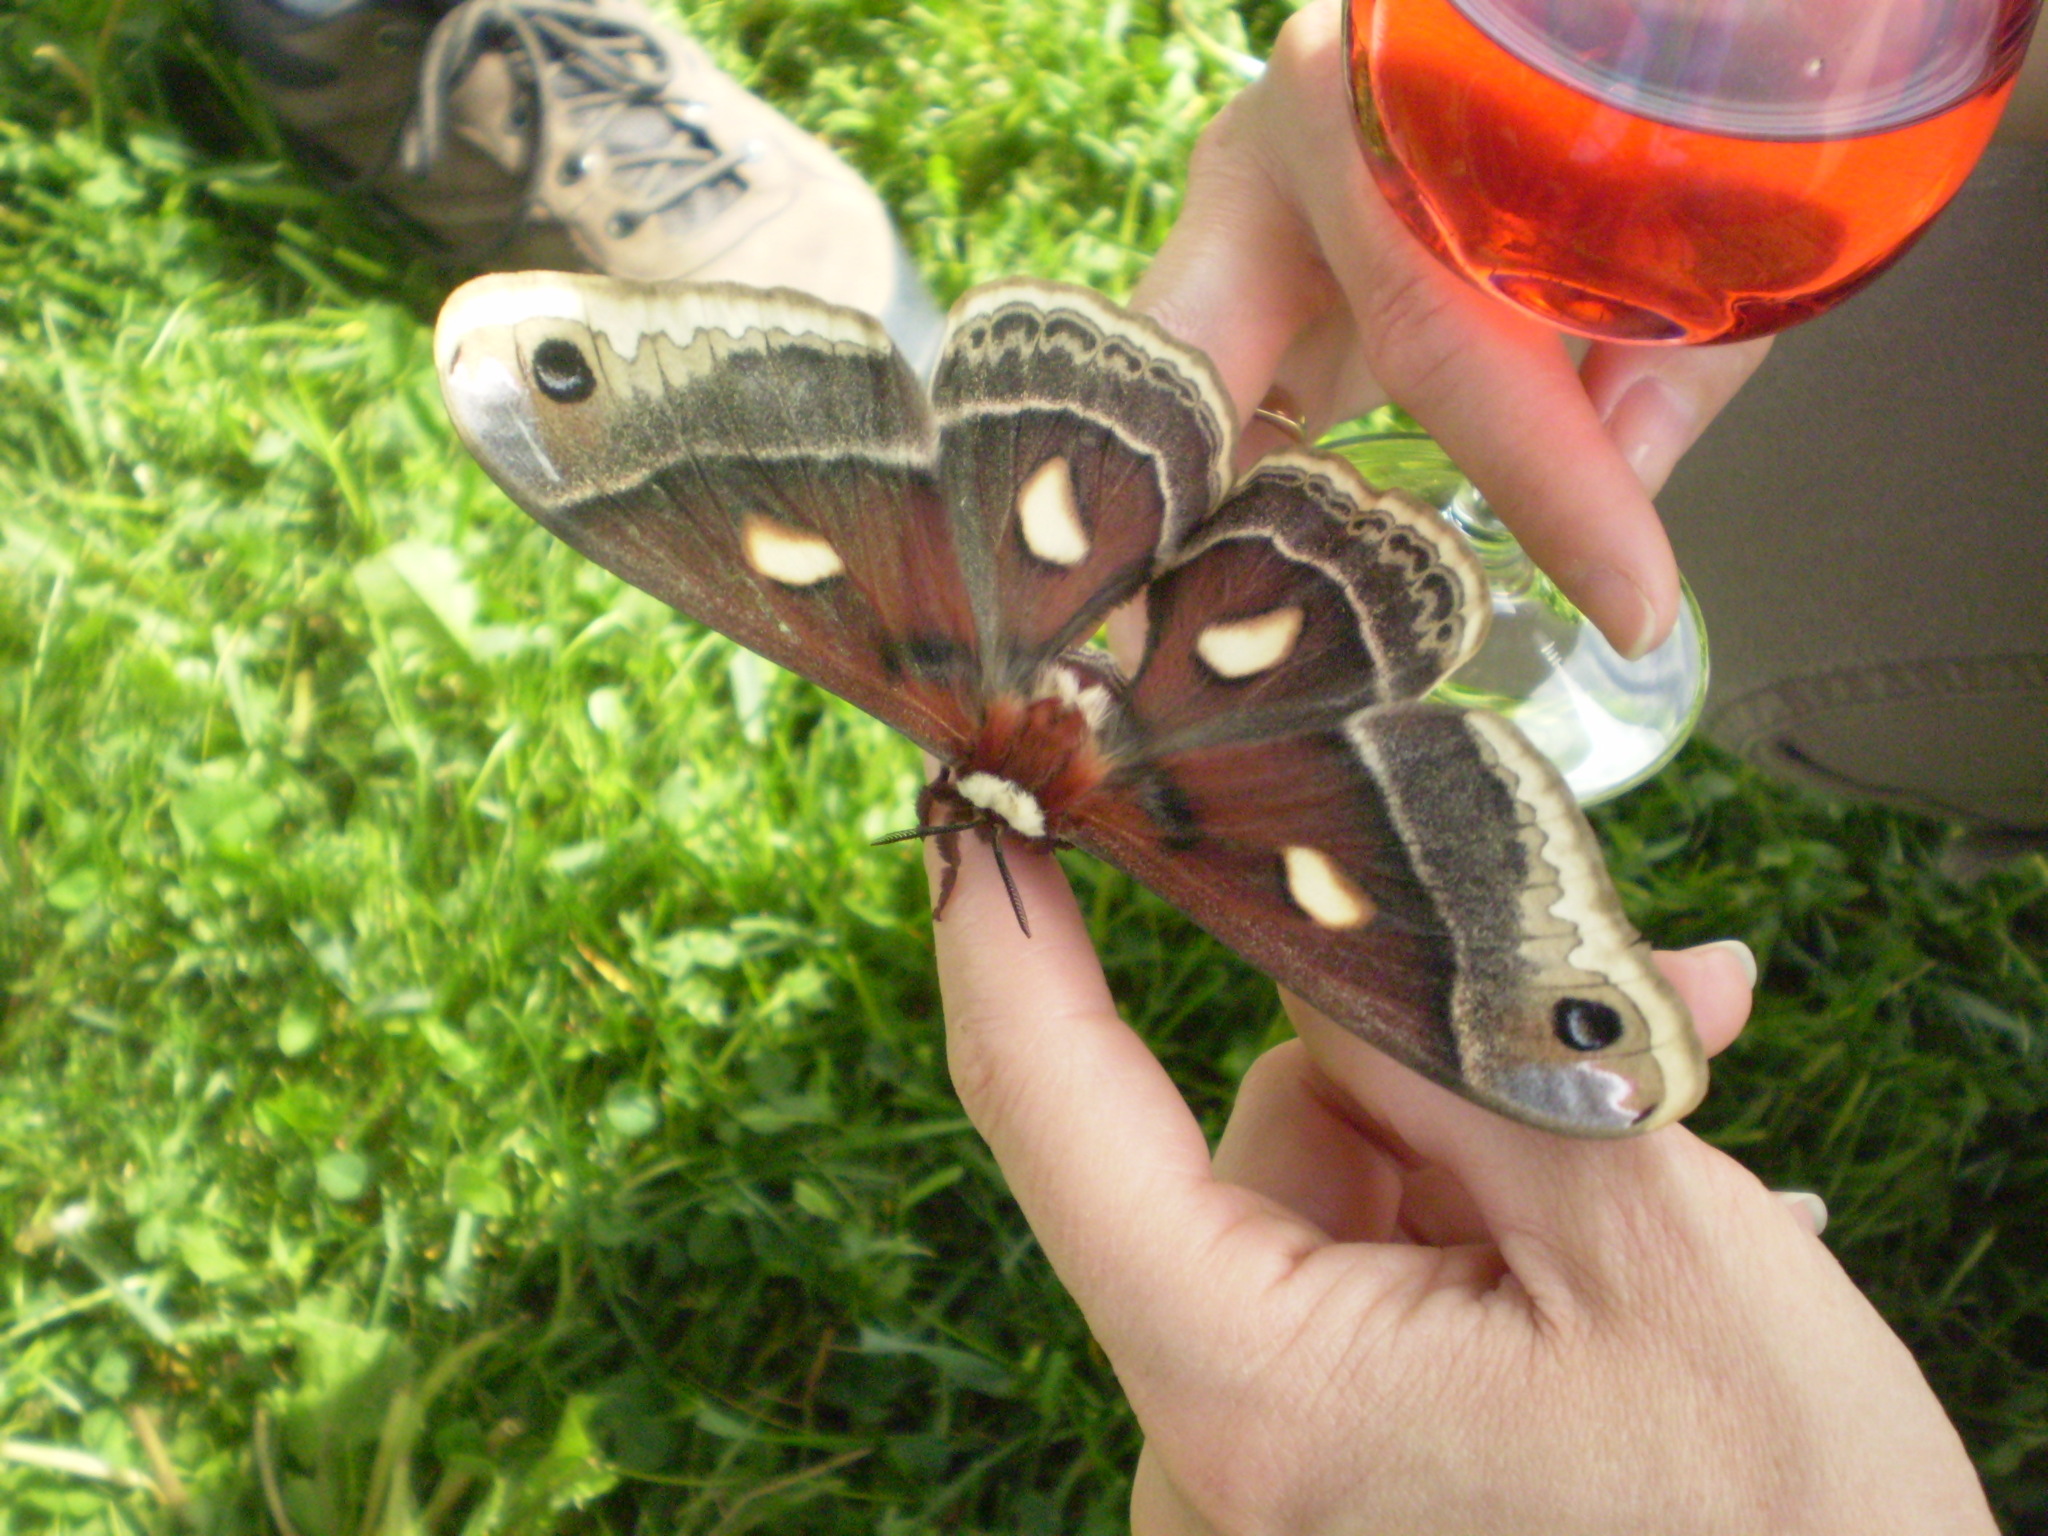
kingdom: Animalia
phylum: Arthropoda
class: Insecta
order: Lepidoptera
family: Saturniidae
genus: Hyalophora
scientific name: Hyalophora columbia
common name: Columbia silkmoth
